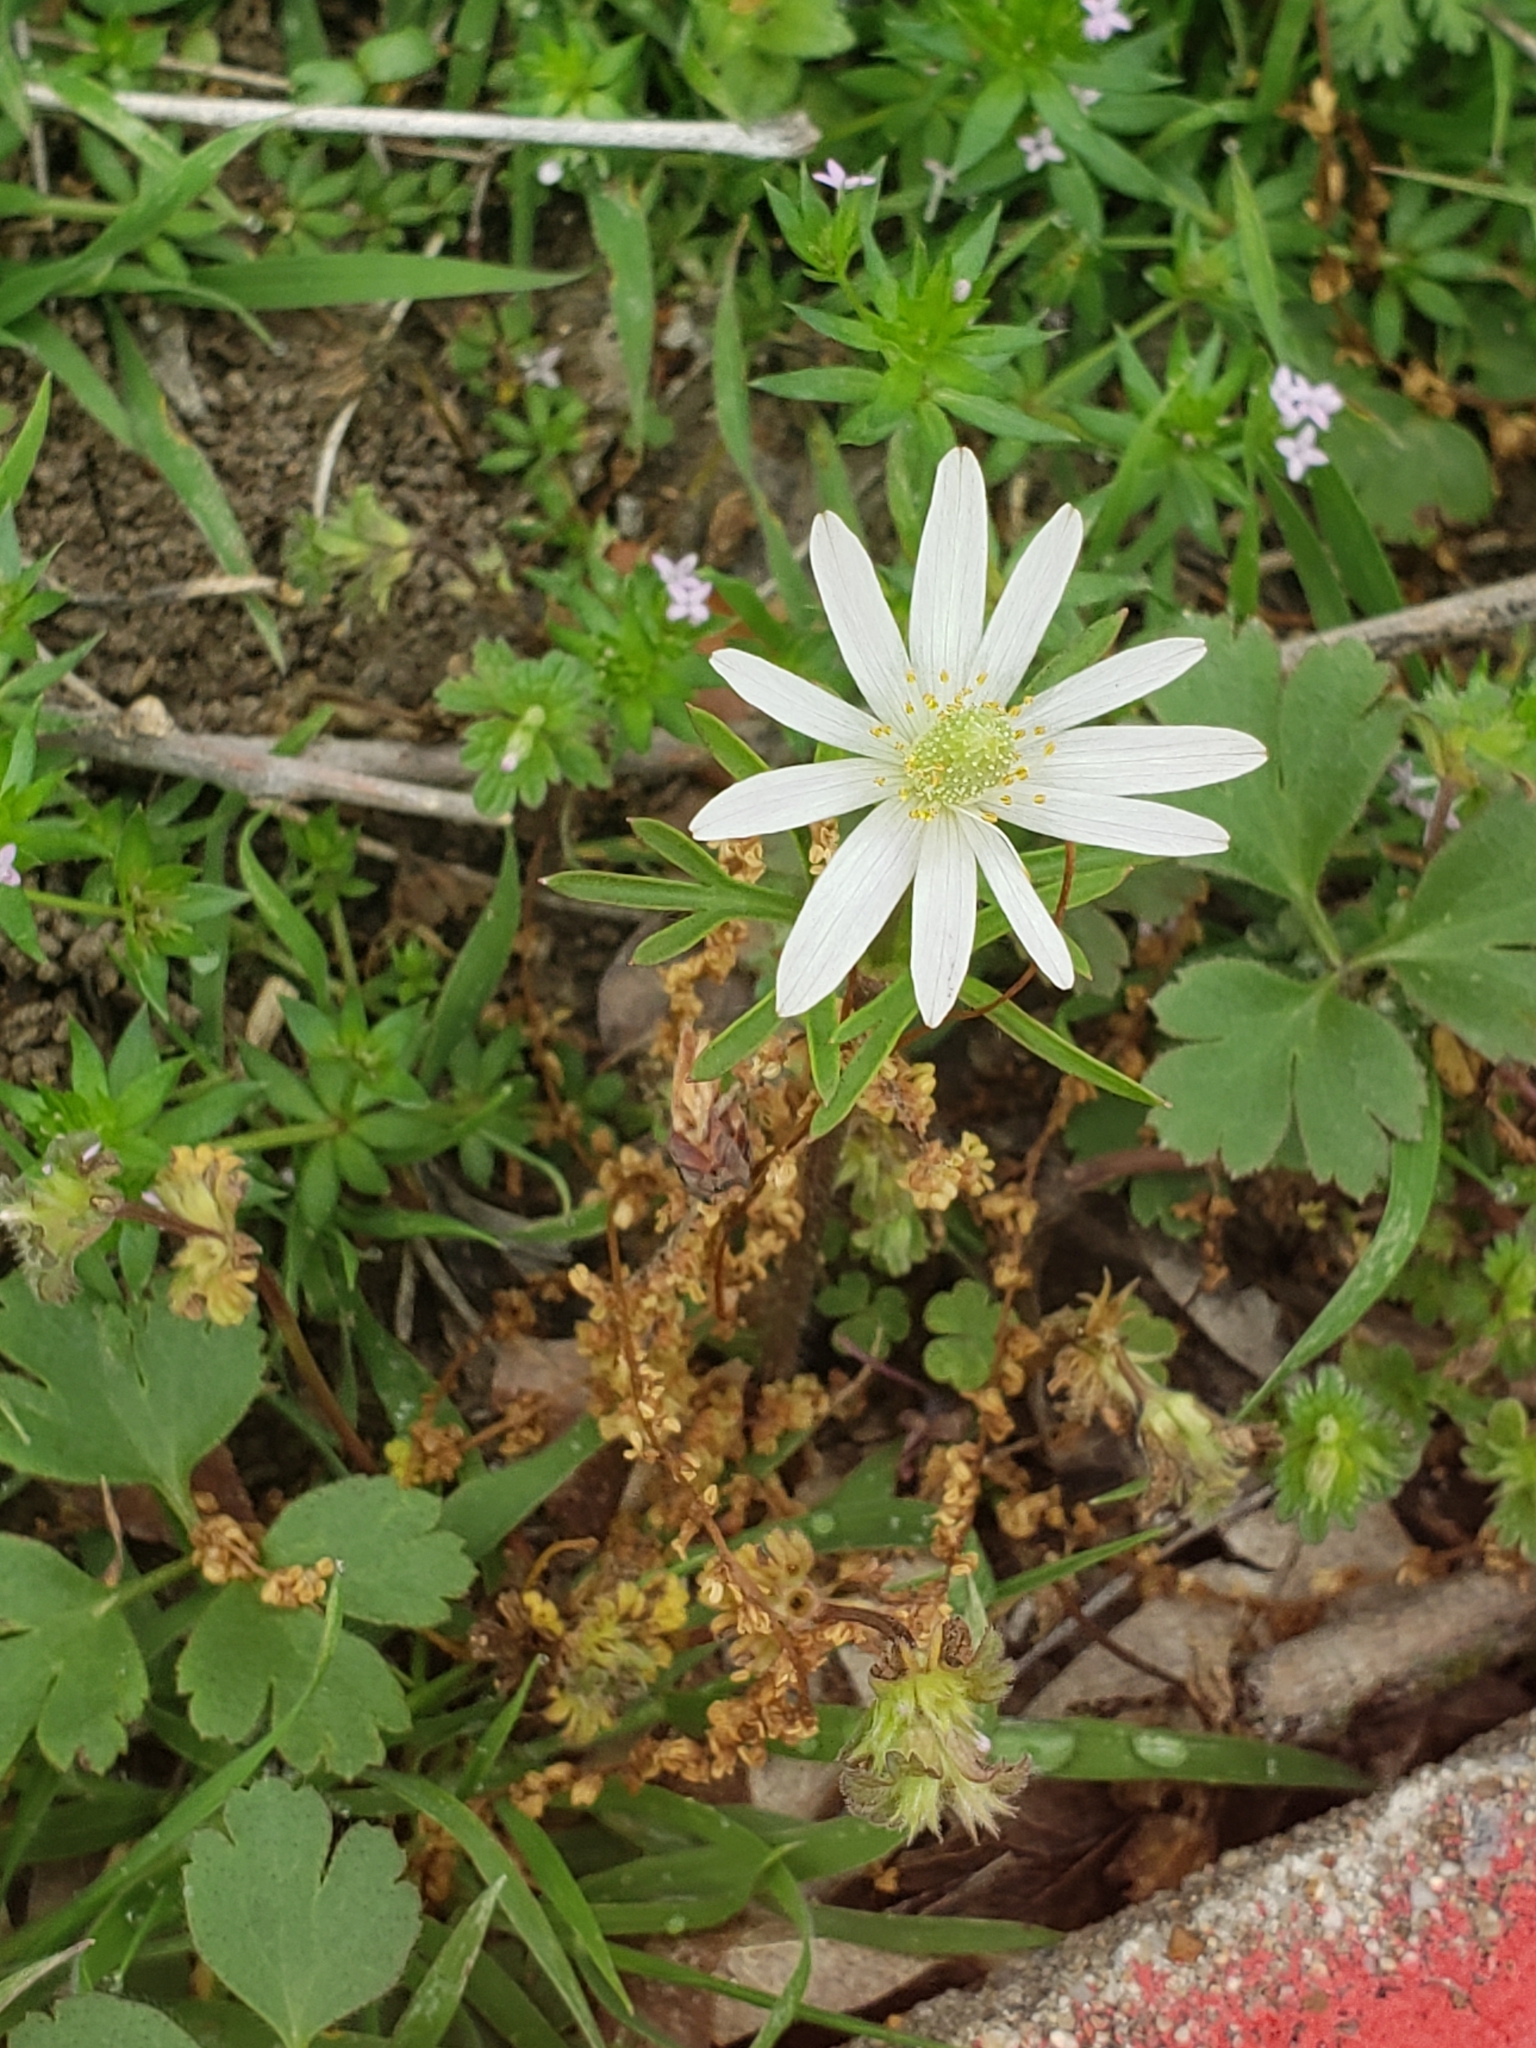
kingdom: Plantae
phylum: Tracheophyta
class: Magnoliopsida
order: Ranunculales
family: Ranunculaceae
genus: Anemone
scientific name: Anemone berlandieri
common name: Ten-petal anemone
